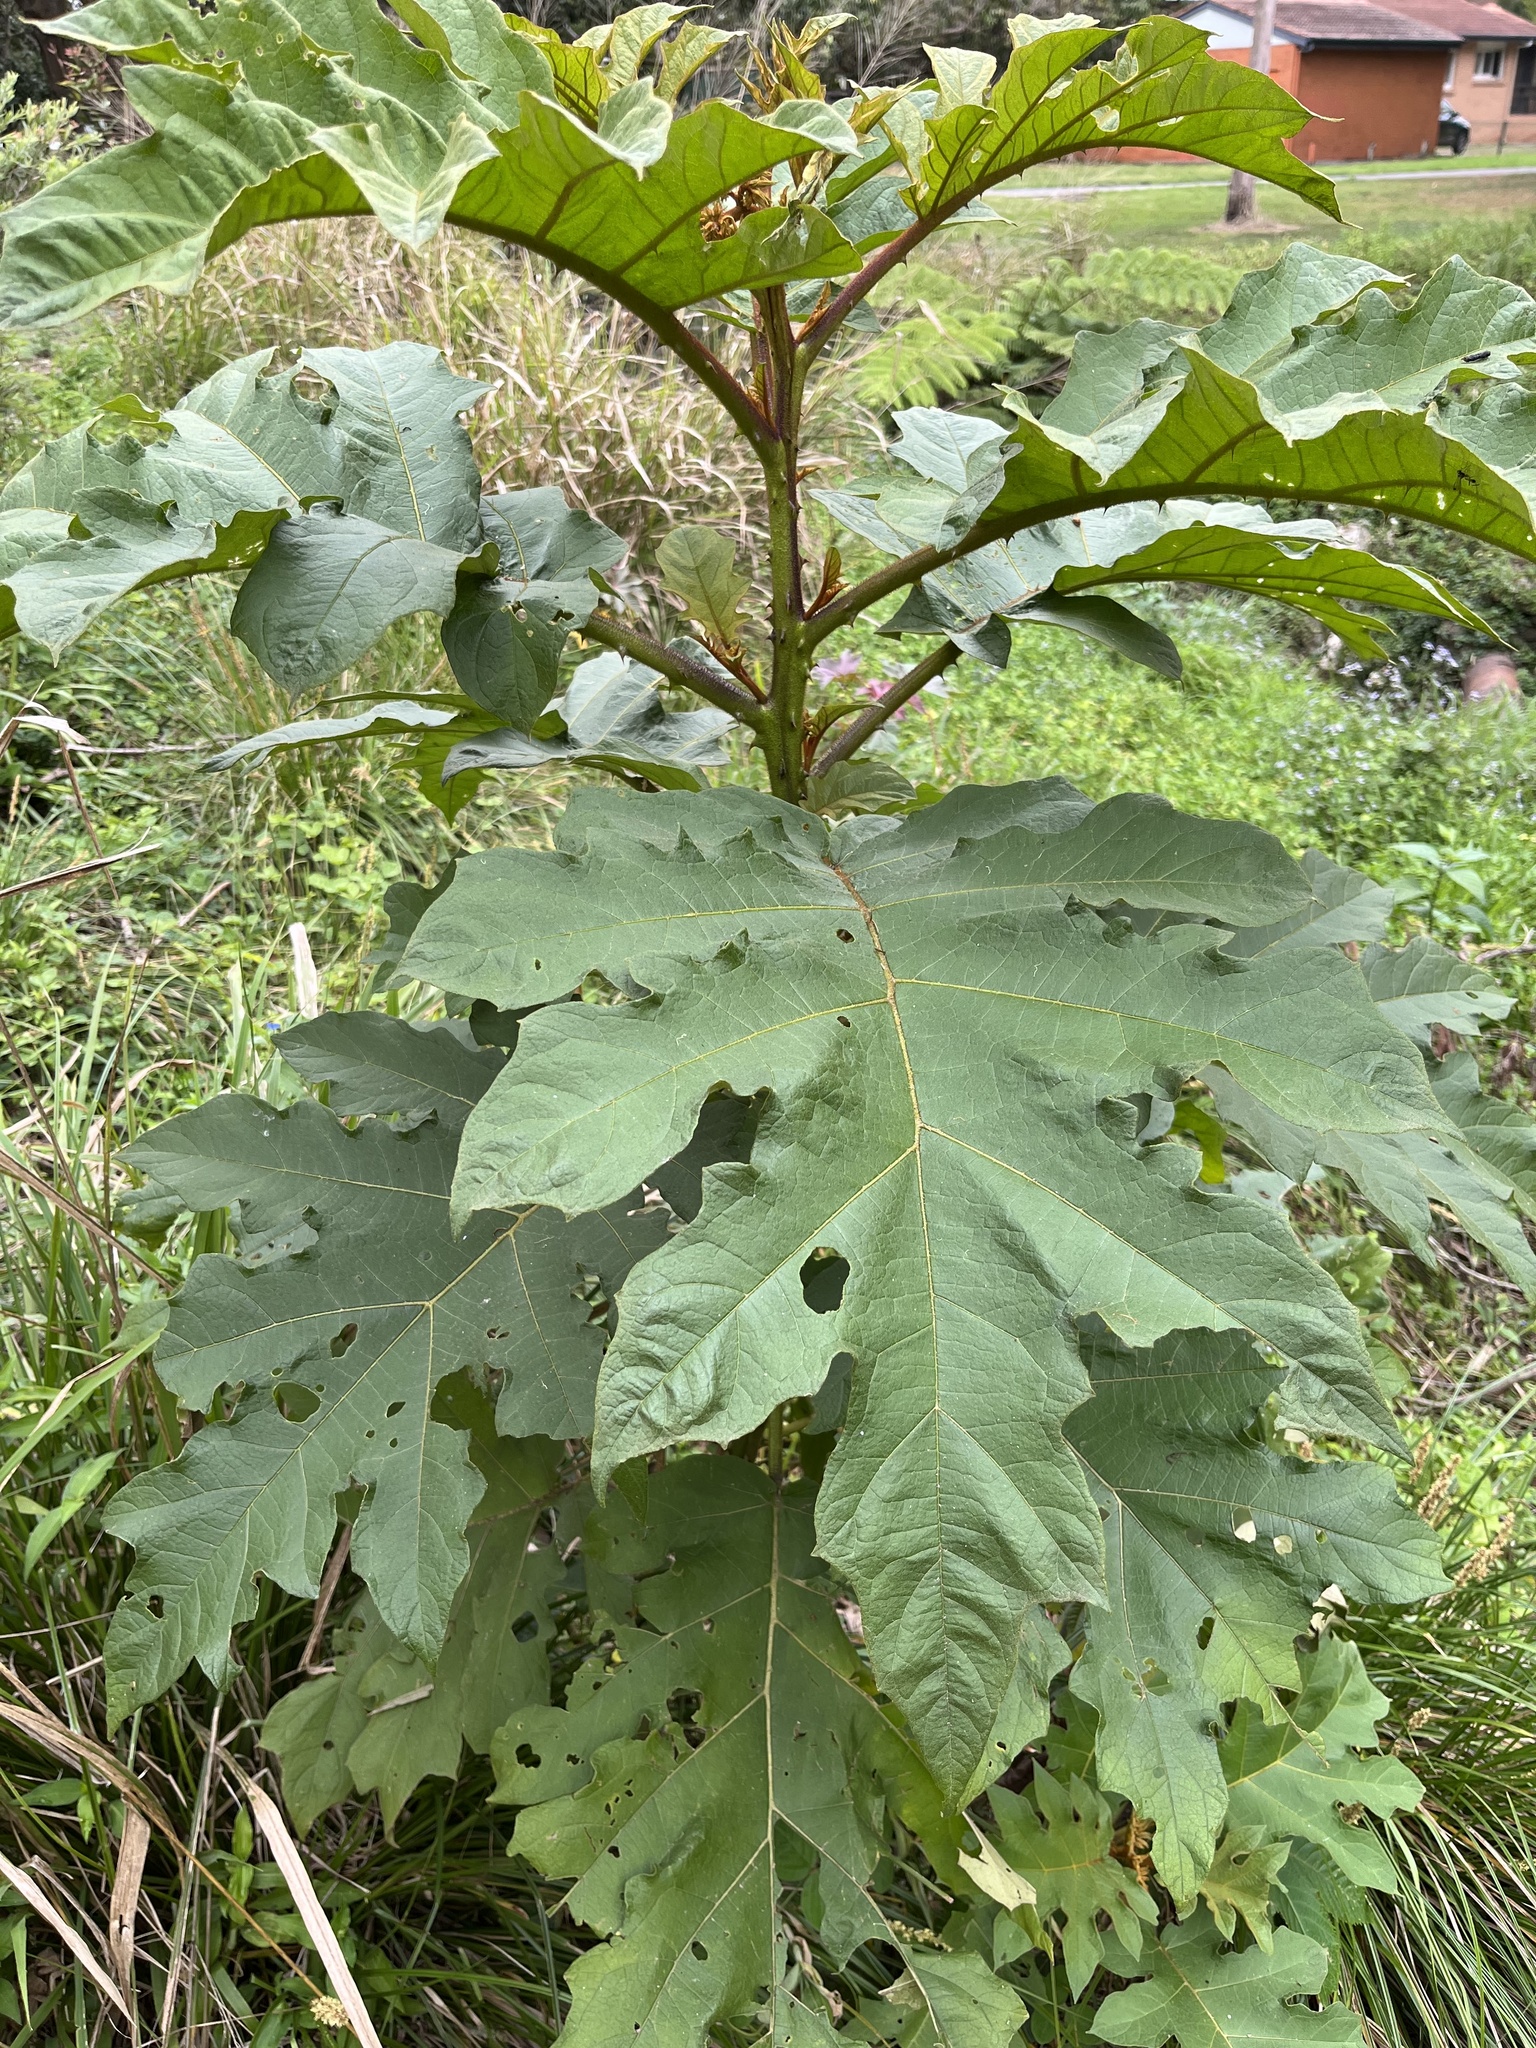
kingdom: Plantae
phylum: Tracheophyta
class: Magnoliopsida
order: Solanales
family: Solanaceae
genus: Solanum
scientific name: Solanum chrysotrichum
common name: Nightshade
